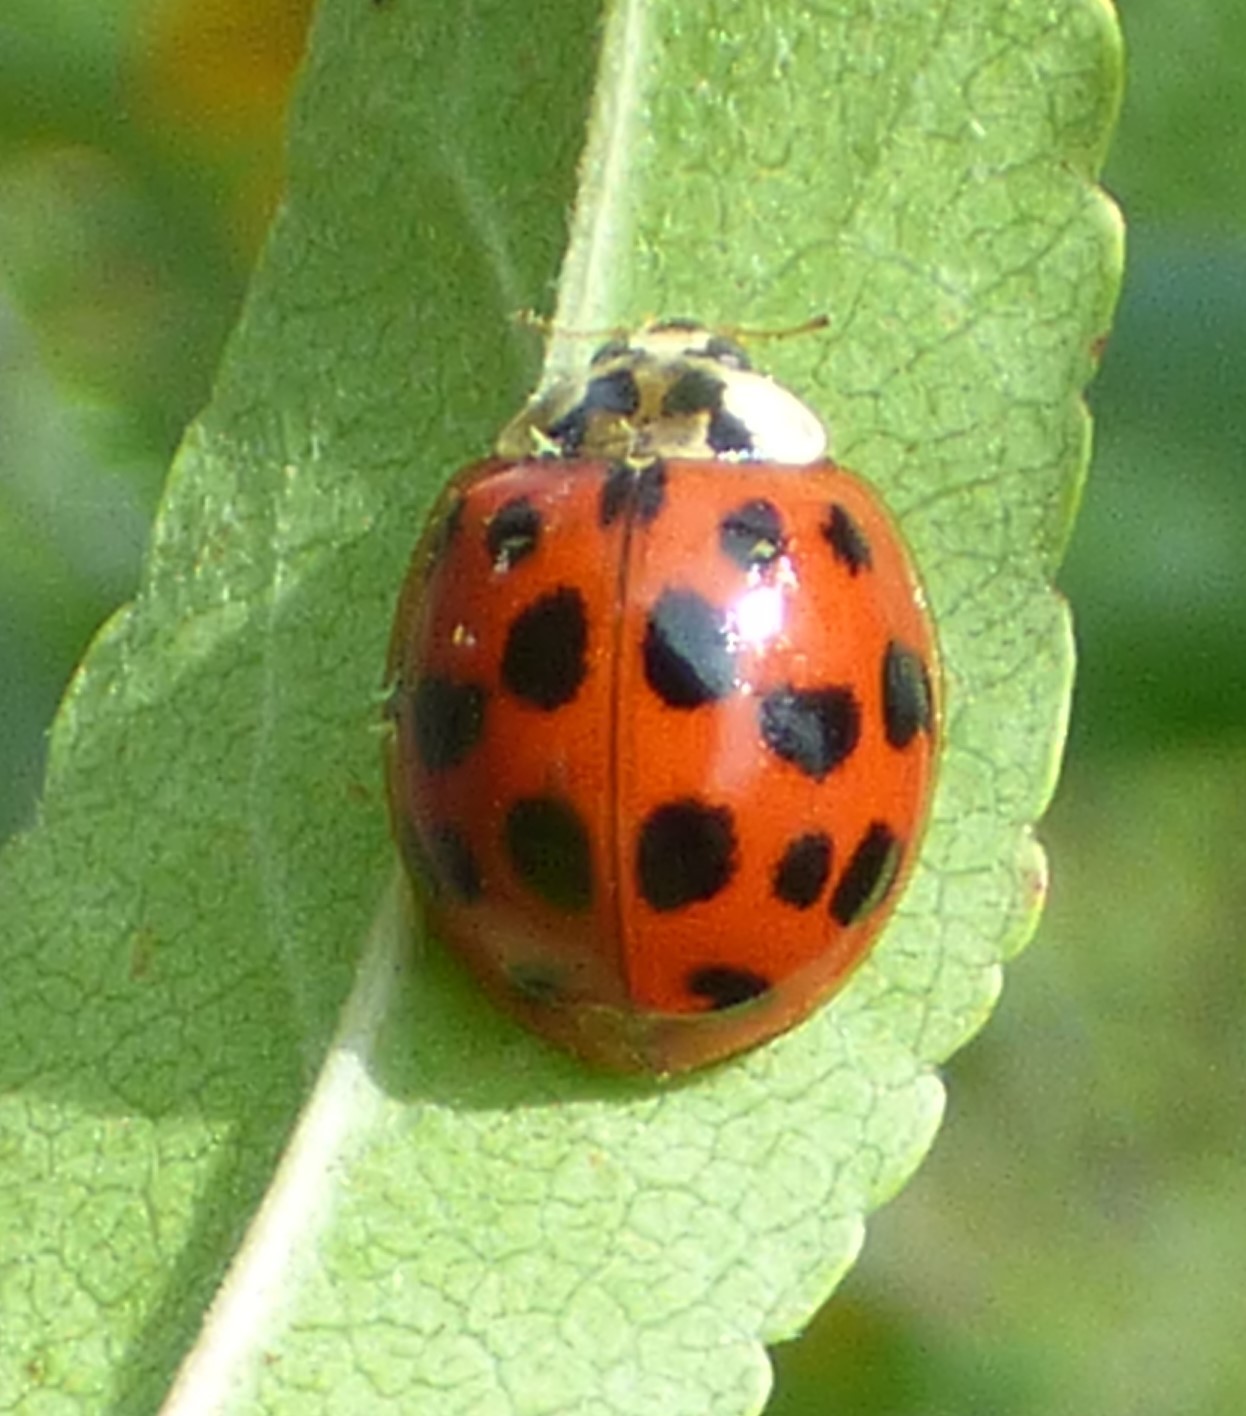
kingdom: Animalia
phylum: Arthropoda
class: Insecta
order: Coleoptera
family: Coccinellidae
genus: Harmonia
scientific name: Harmonia axyridis
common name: Harlequin ladybird
